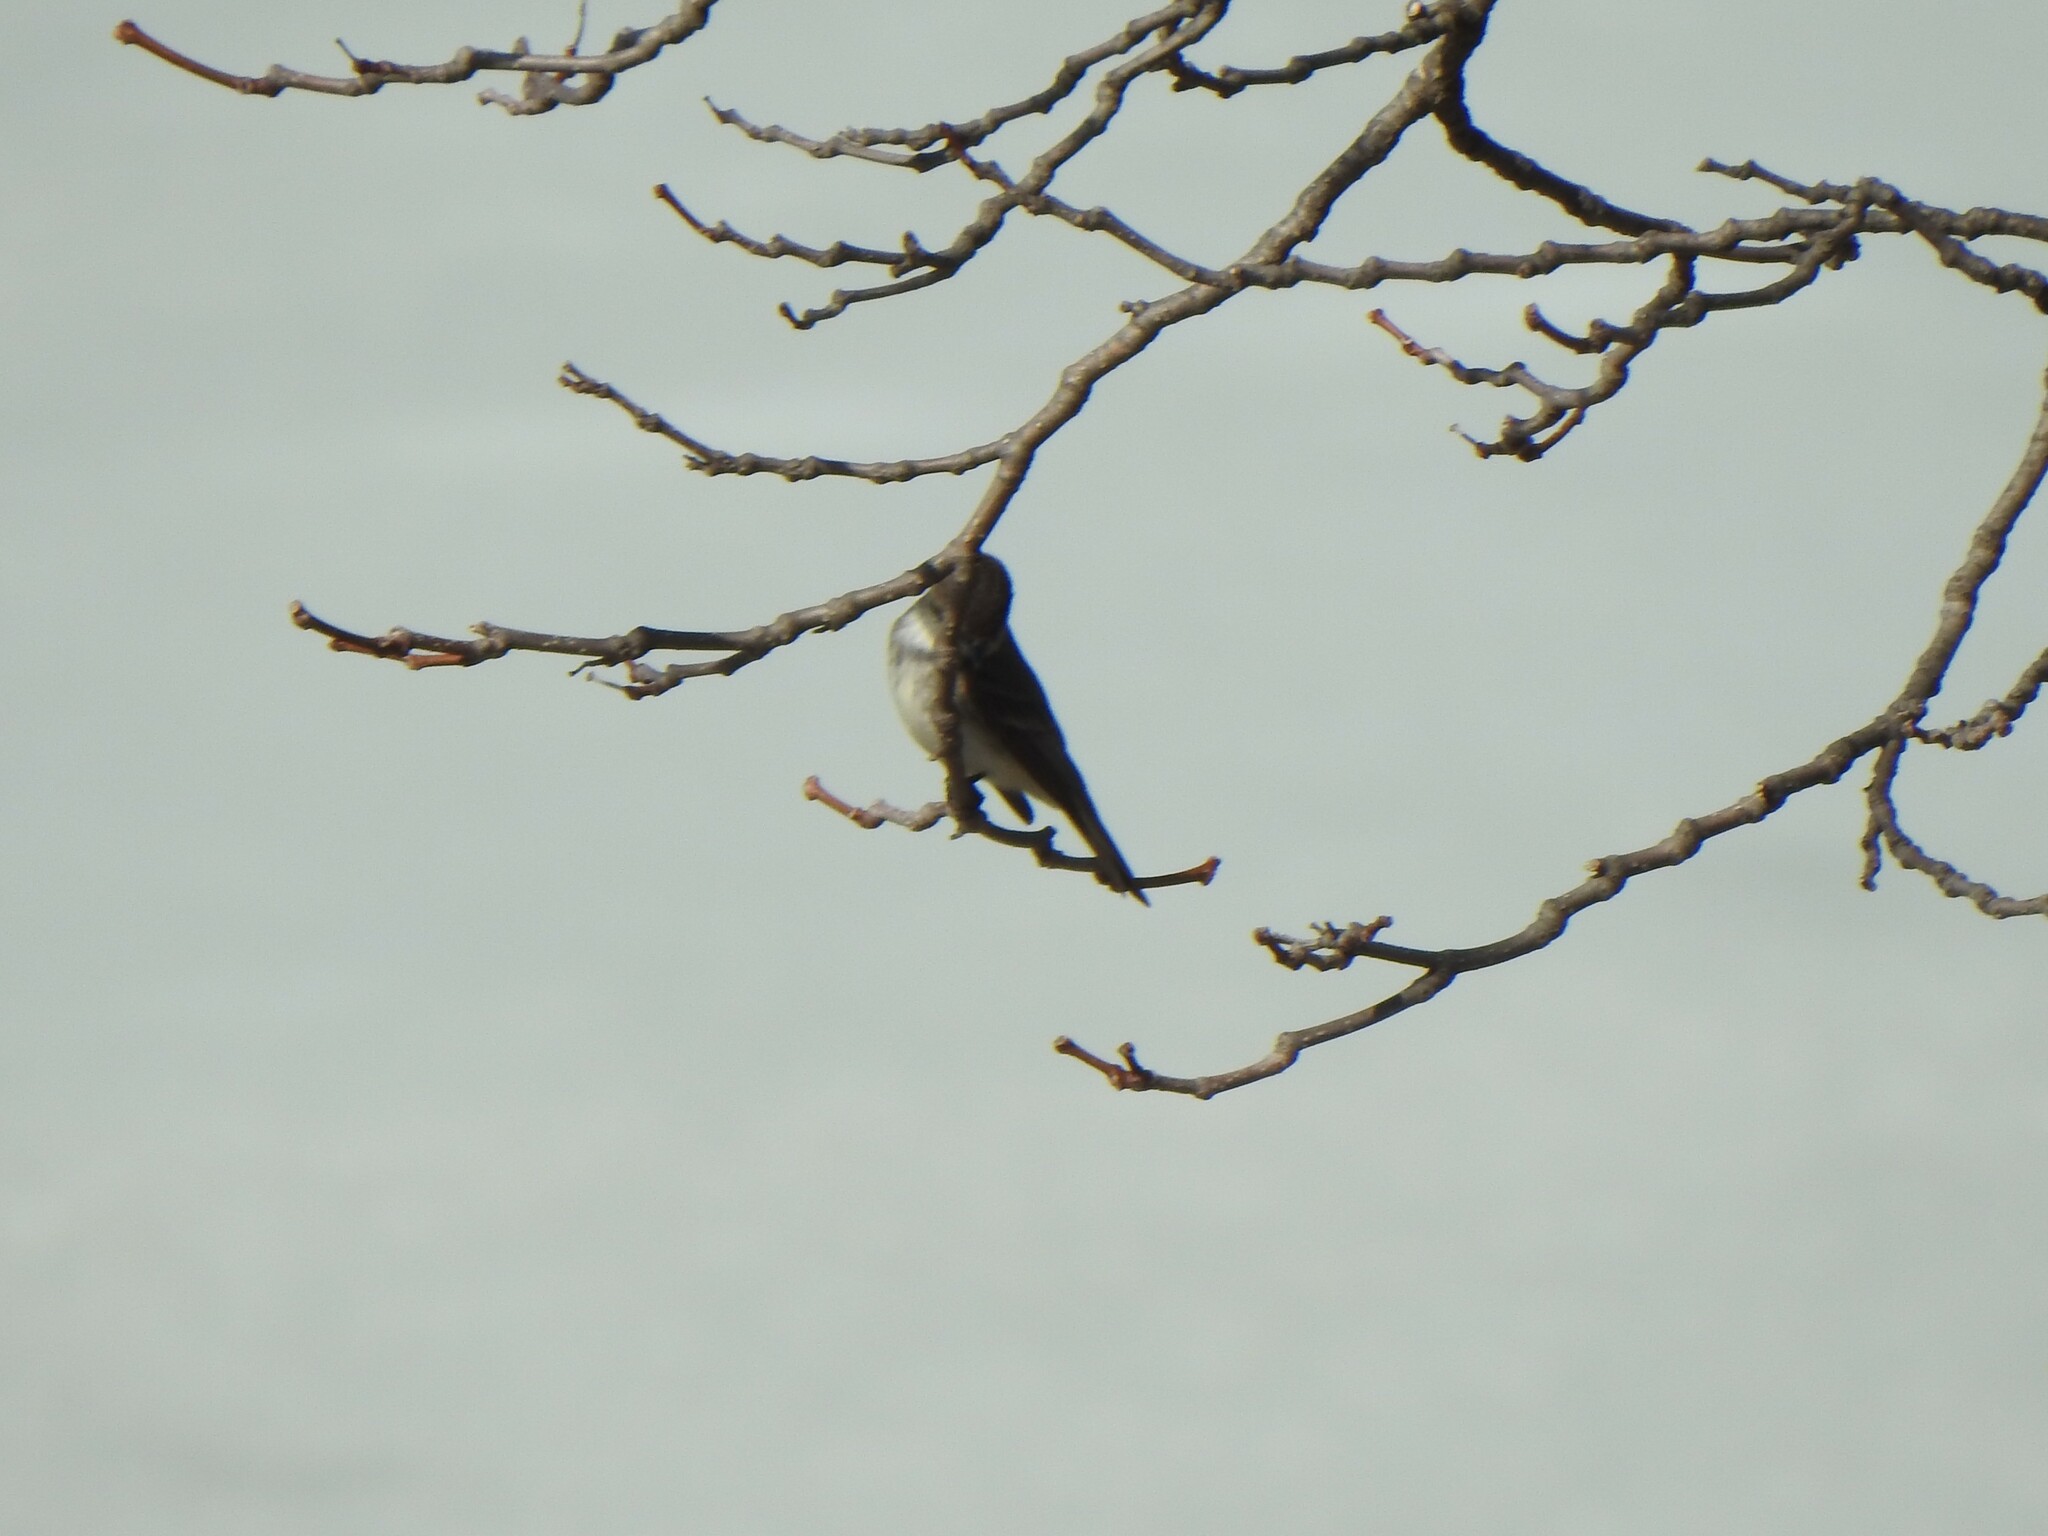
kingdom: Animalia
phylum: Chordata
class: Aves
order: Passeriformes
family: Tyrannidae
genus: Sayornis
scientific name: Sayornis phoebe
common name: Eastern phoebe
